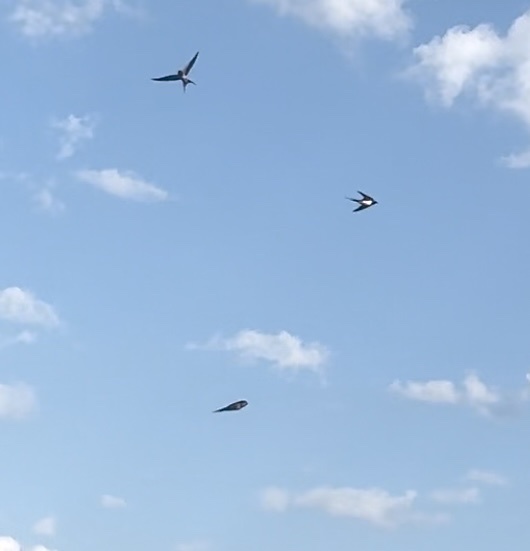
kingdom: Animalia
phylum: Chordata
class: Aves
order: Passeriformes
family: Hirundinidae
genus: Hirundo
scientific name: Hirundo rustica
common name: Barn swallow
